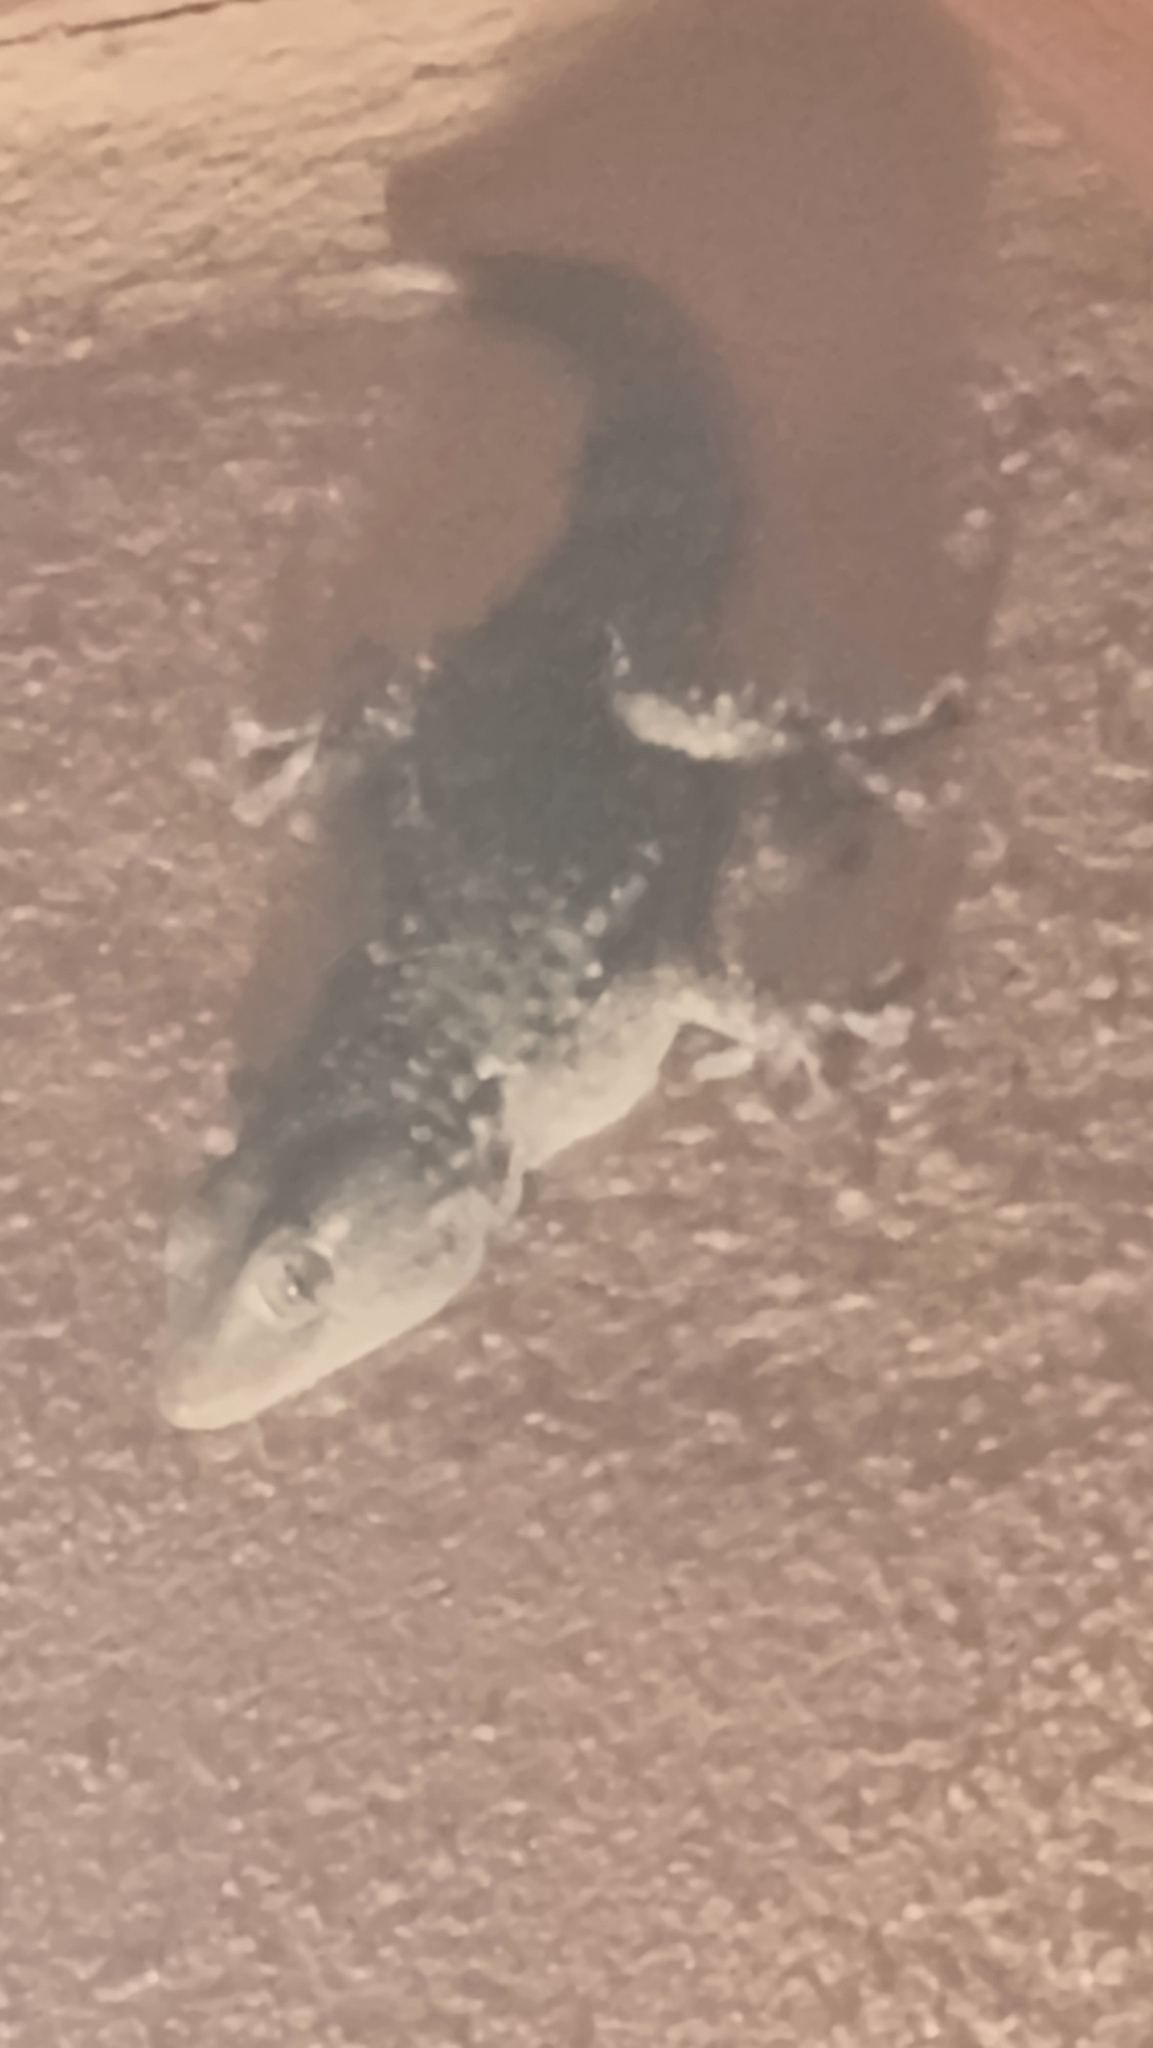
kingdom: Animalia
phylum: Chordata
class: Squamata
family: Phyllodactylidae
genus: Tarentola
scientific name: Tarentola mauritanica
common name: Moorish gecko
